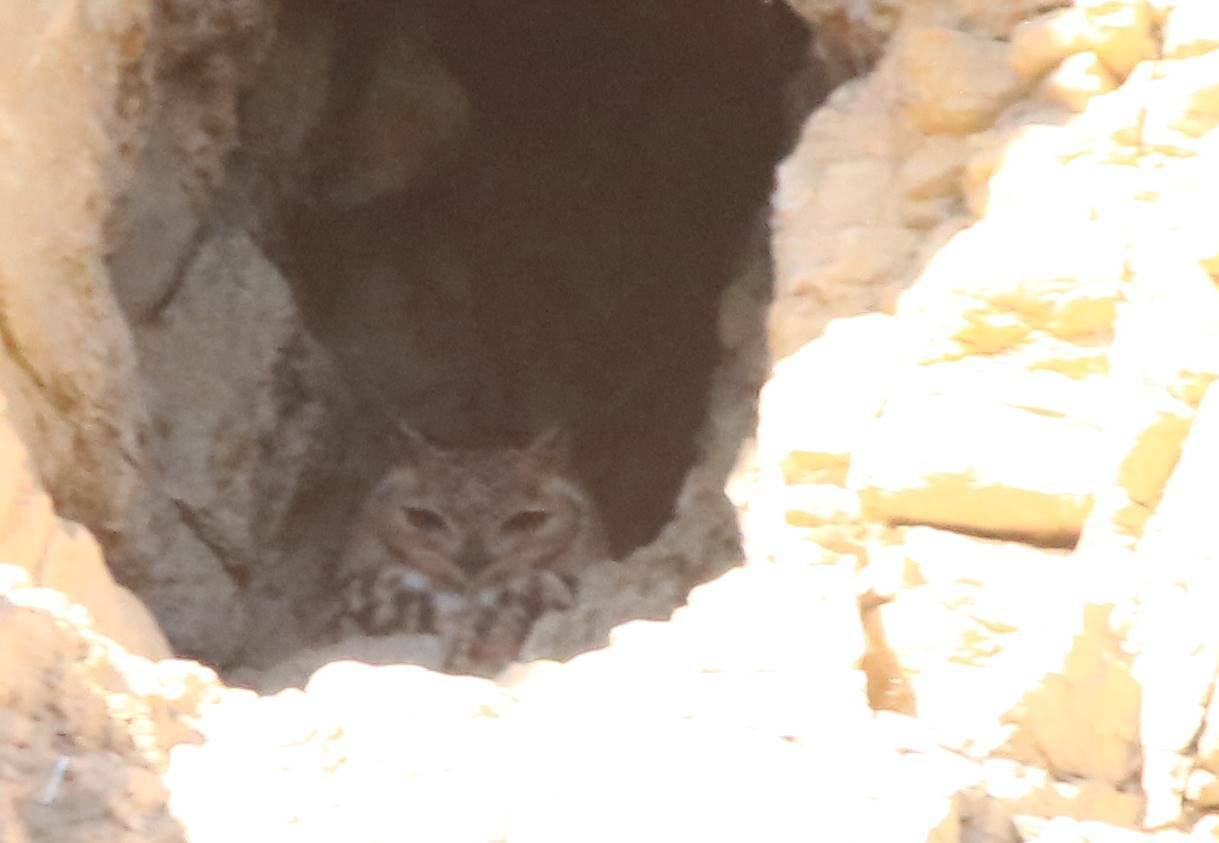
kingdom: Animalia
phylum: Chordata
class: Aves
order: Strigiformes
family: Strigidae
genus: Bubo
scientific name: Bubo ascalaphus
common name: Pharaoh eagle-owl
